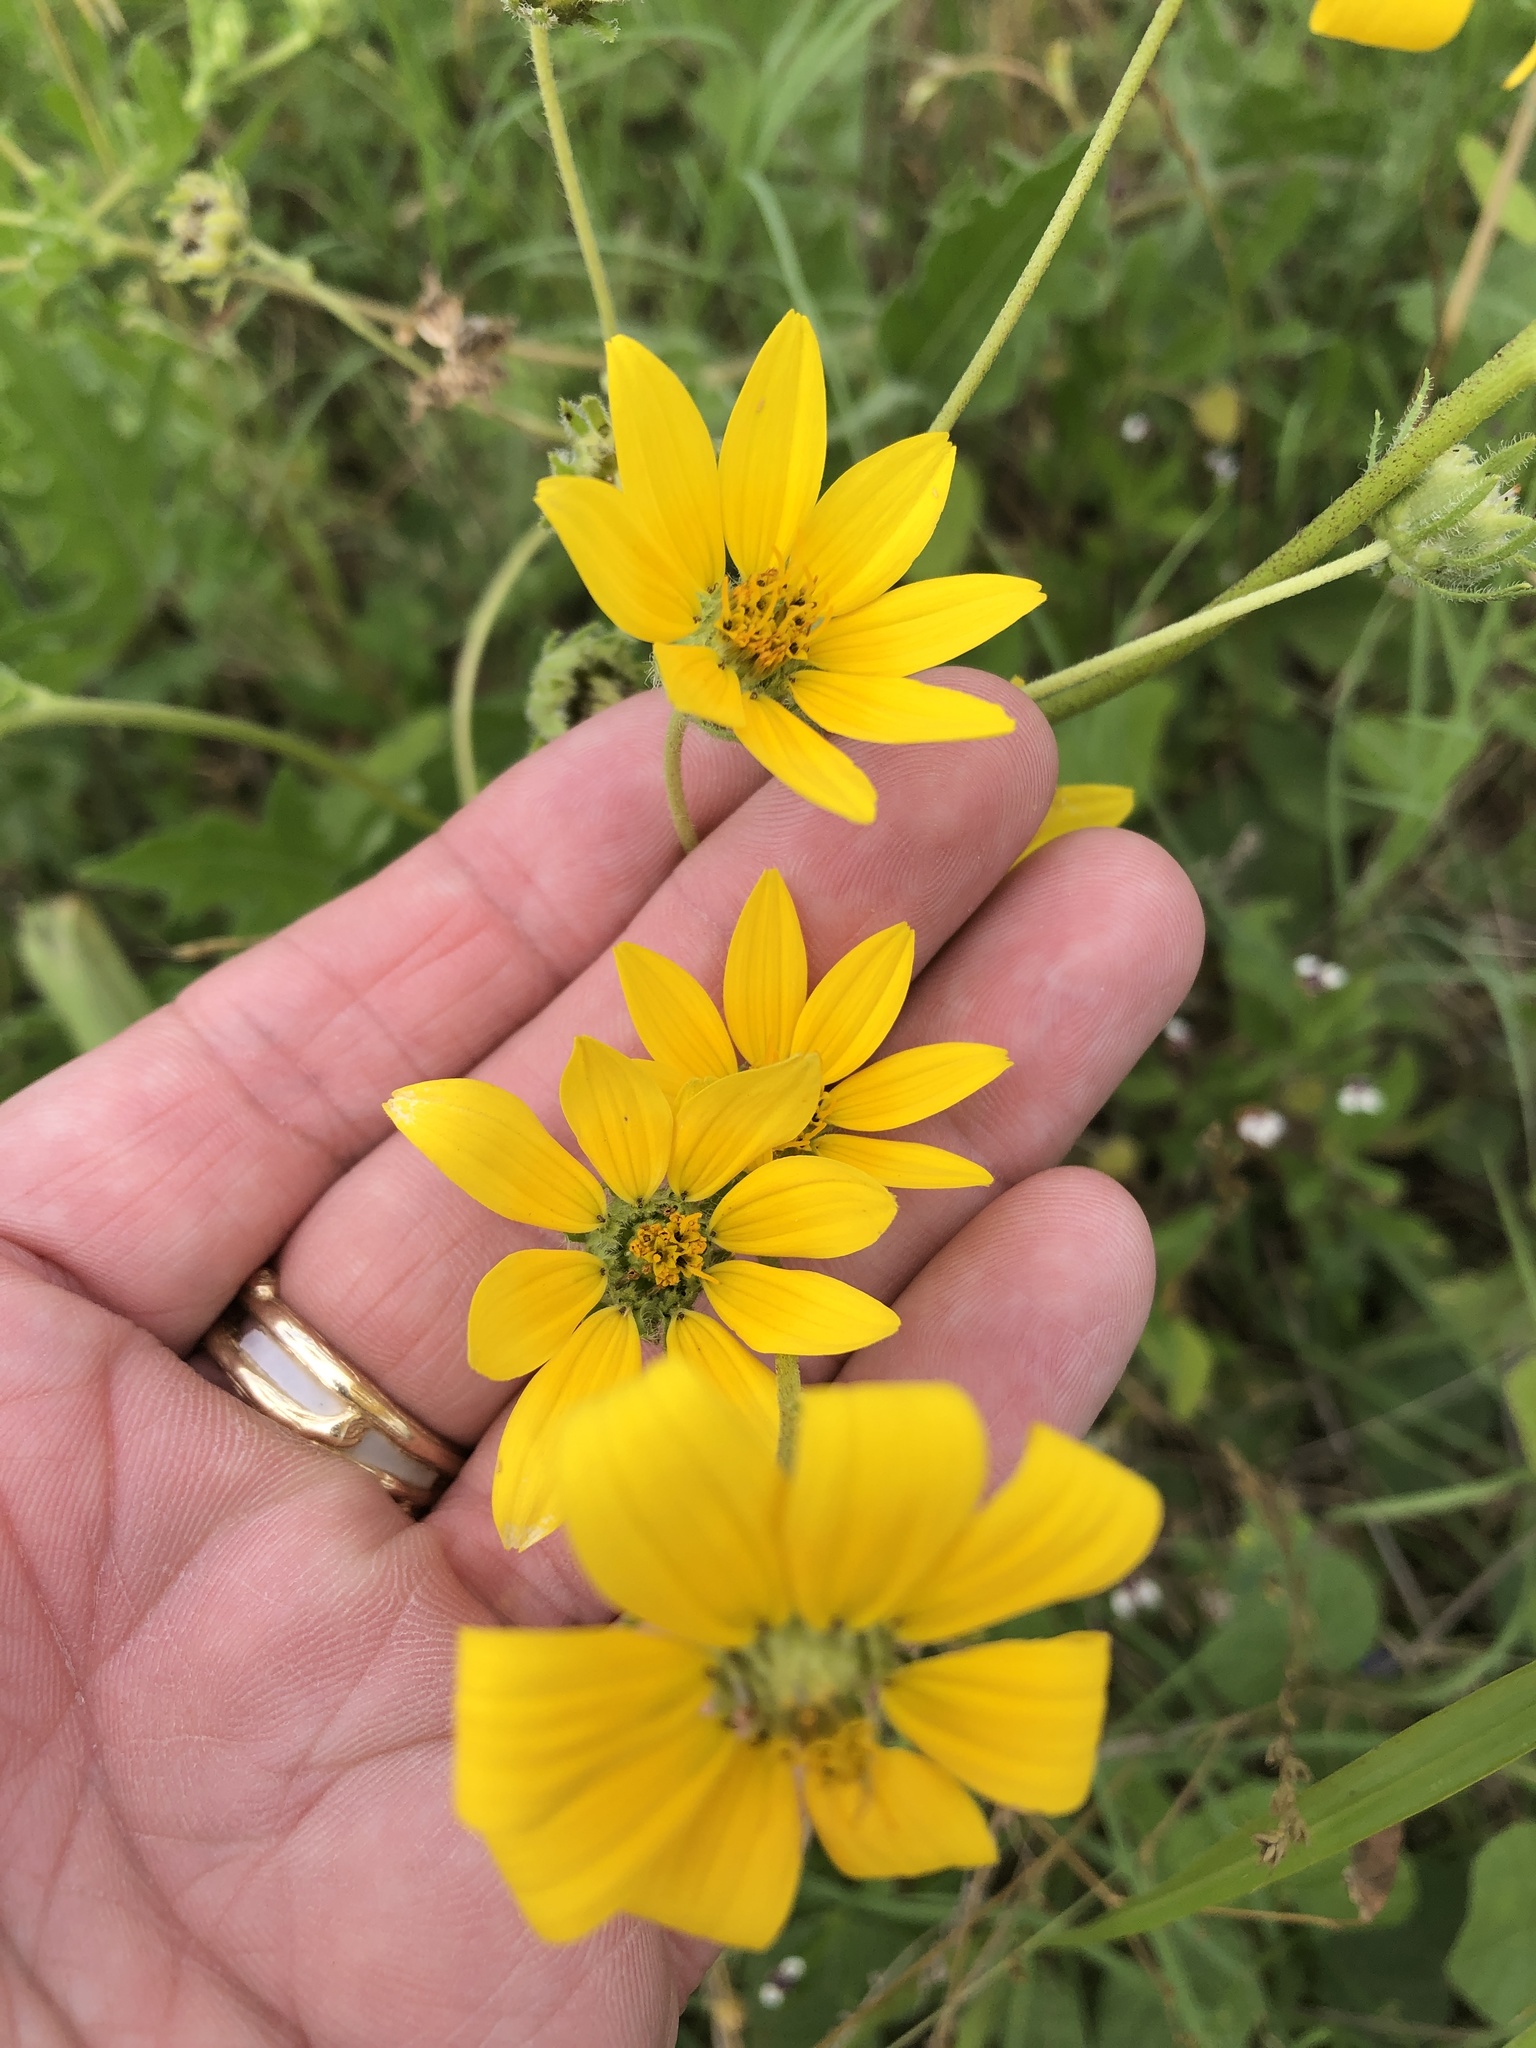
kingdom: Plantae
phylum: Tracheophyta
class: Magnoliopsida
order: Asterales
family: Asteraceae
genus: Engelmannia
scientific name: Engelmannia peristenia
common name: Engelmann's daisy
